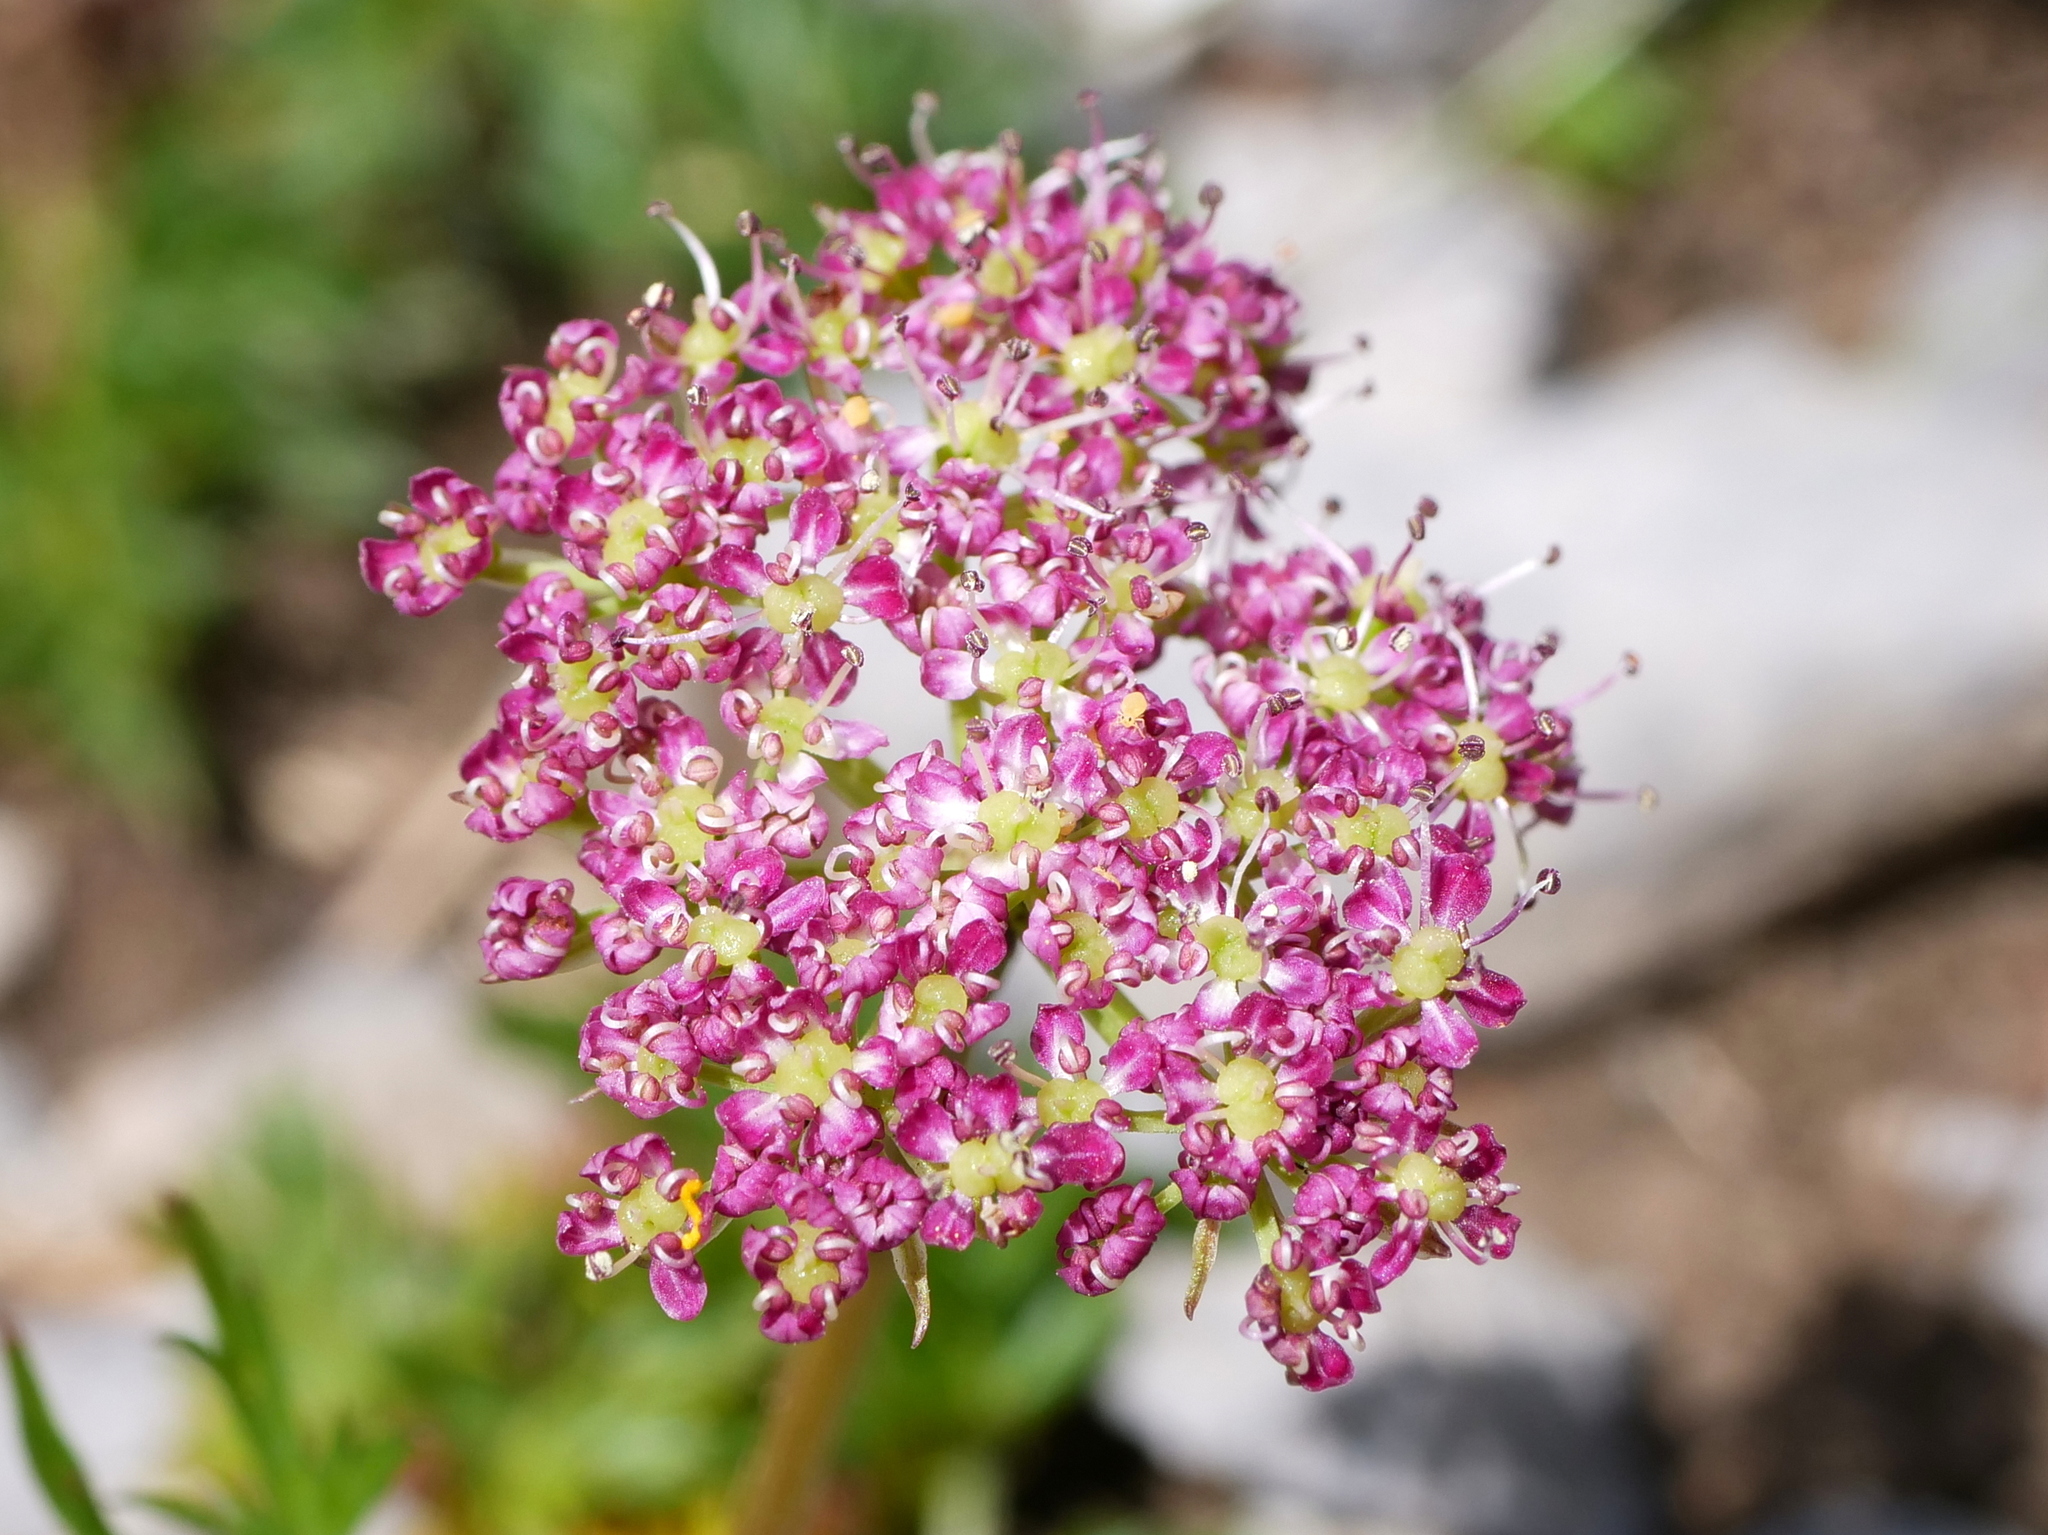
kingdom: Plantae
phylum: Tracheophyta
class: Magnoliopsida
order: Apiales
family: Apiaceae
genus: Mutellina
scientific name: Mutellina adonidifolia
